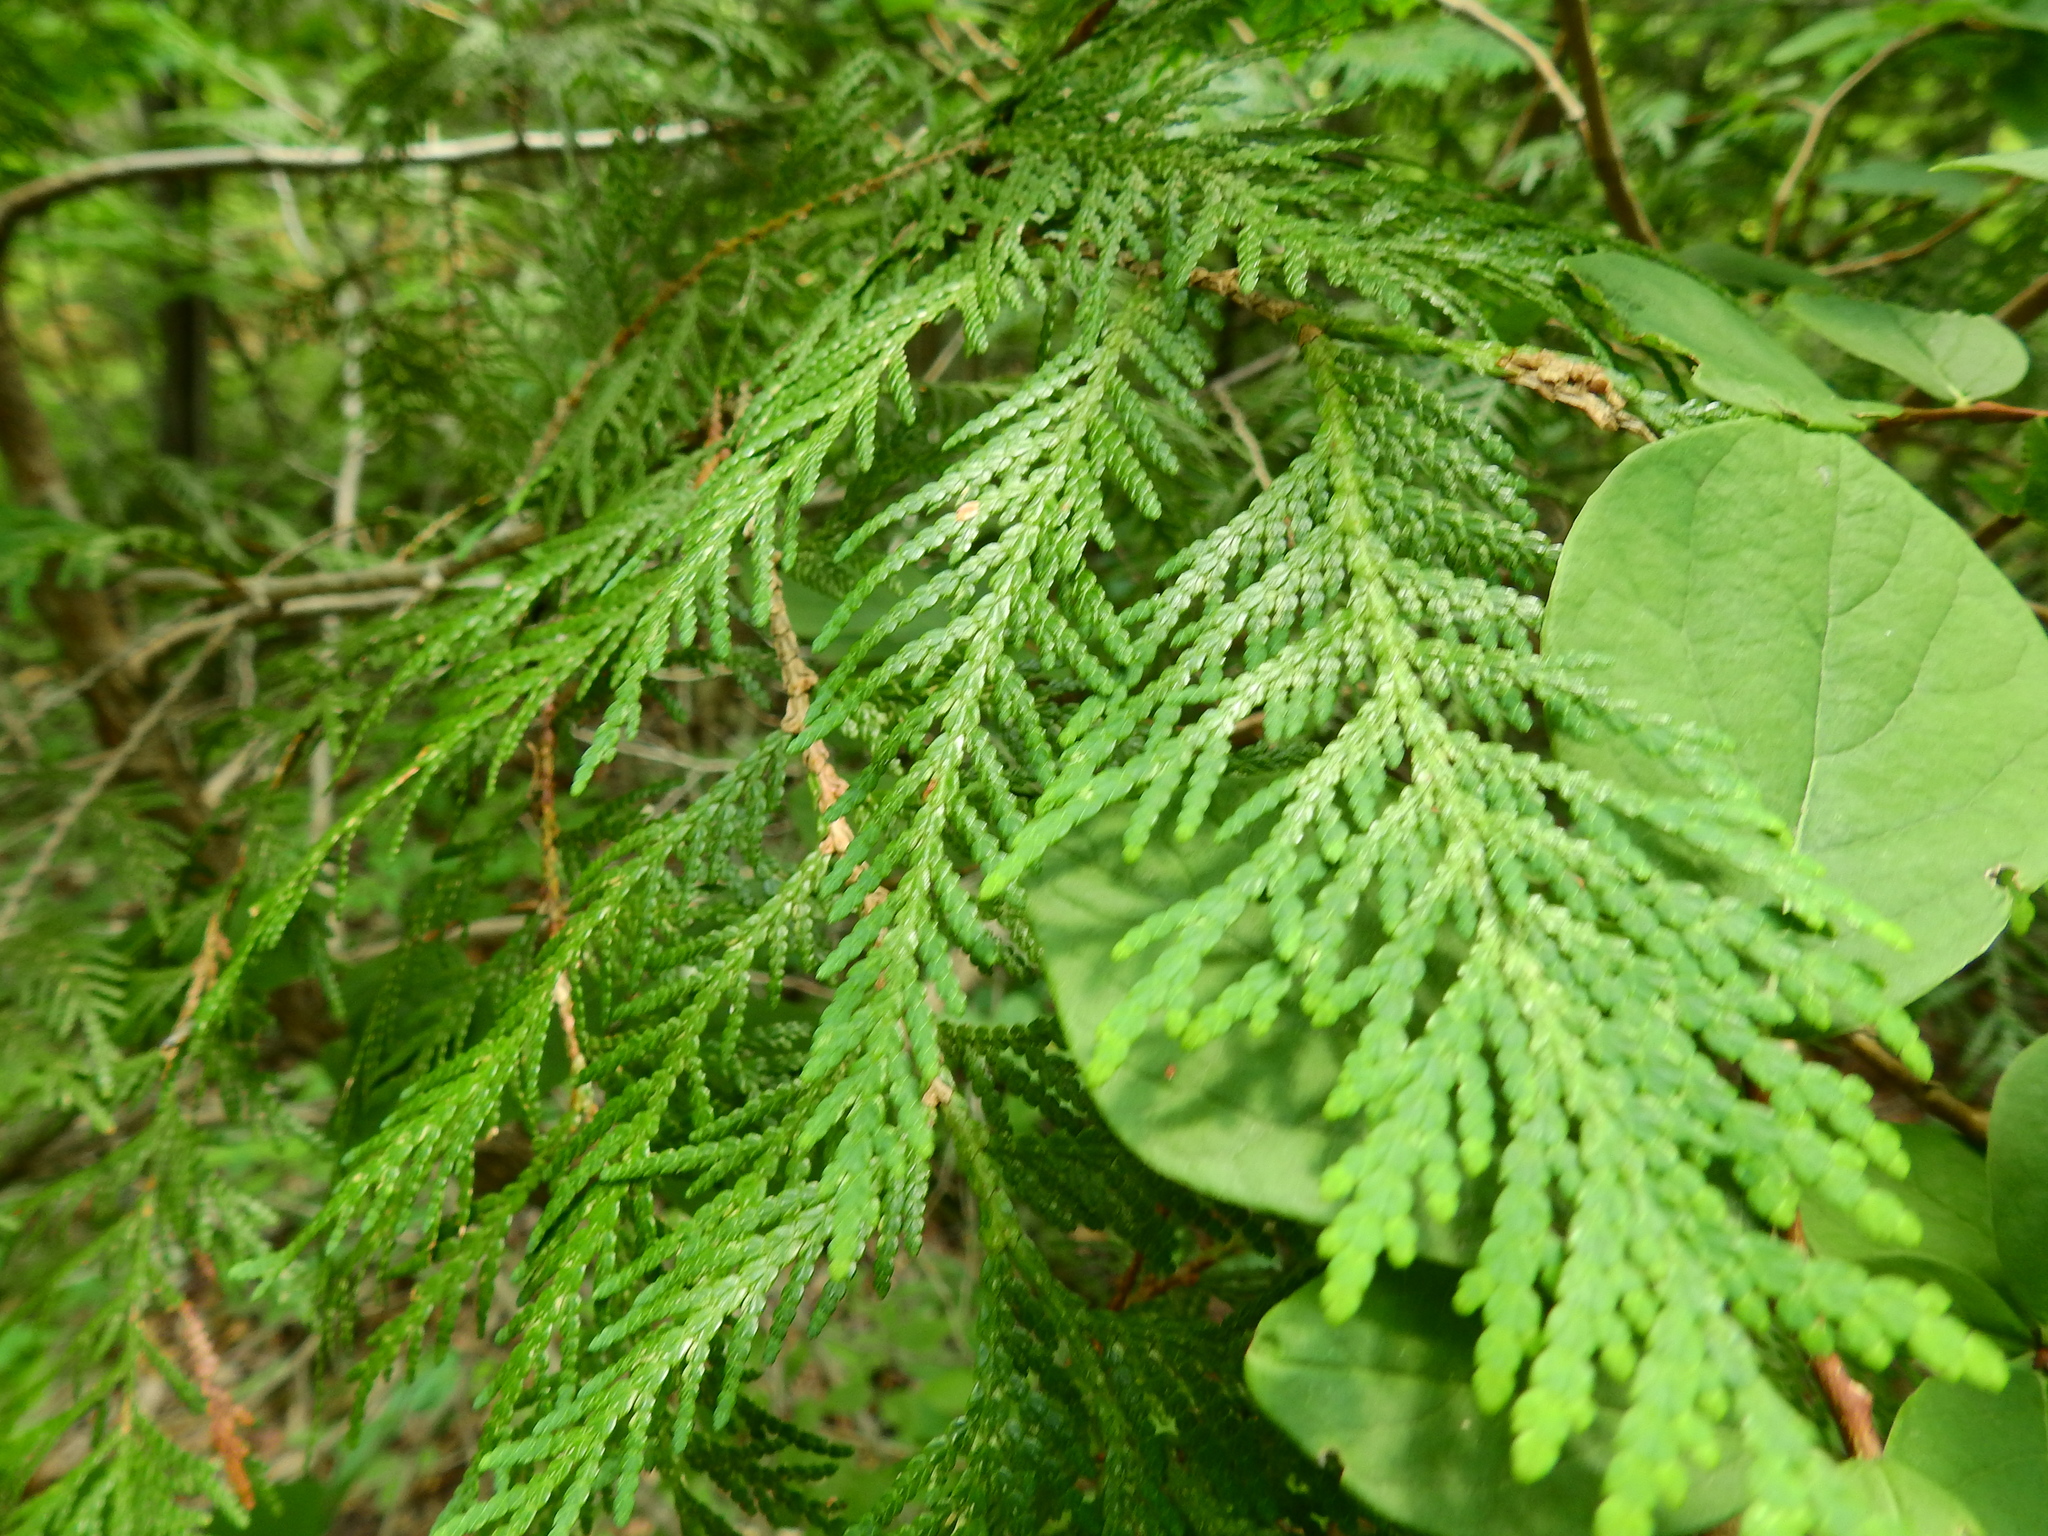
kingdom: Plantae
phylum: Tracheophyta
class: Pinopsida
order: Pinales
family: Cupressaceae
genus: Thuja
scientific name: Thuja occidentalis
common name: Northern white-cedar
